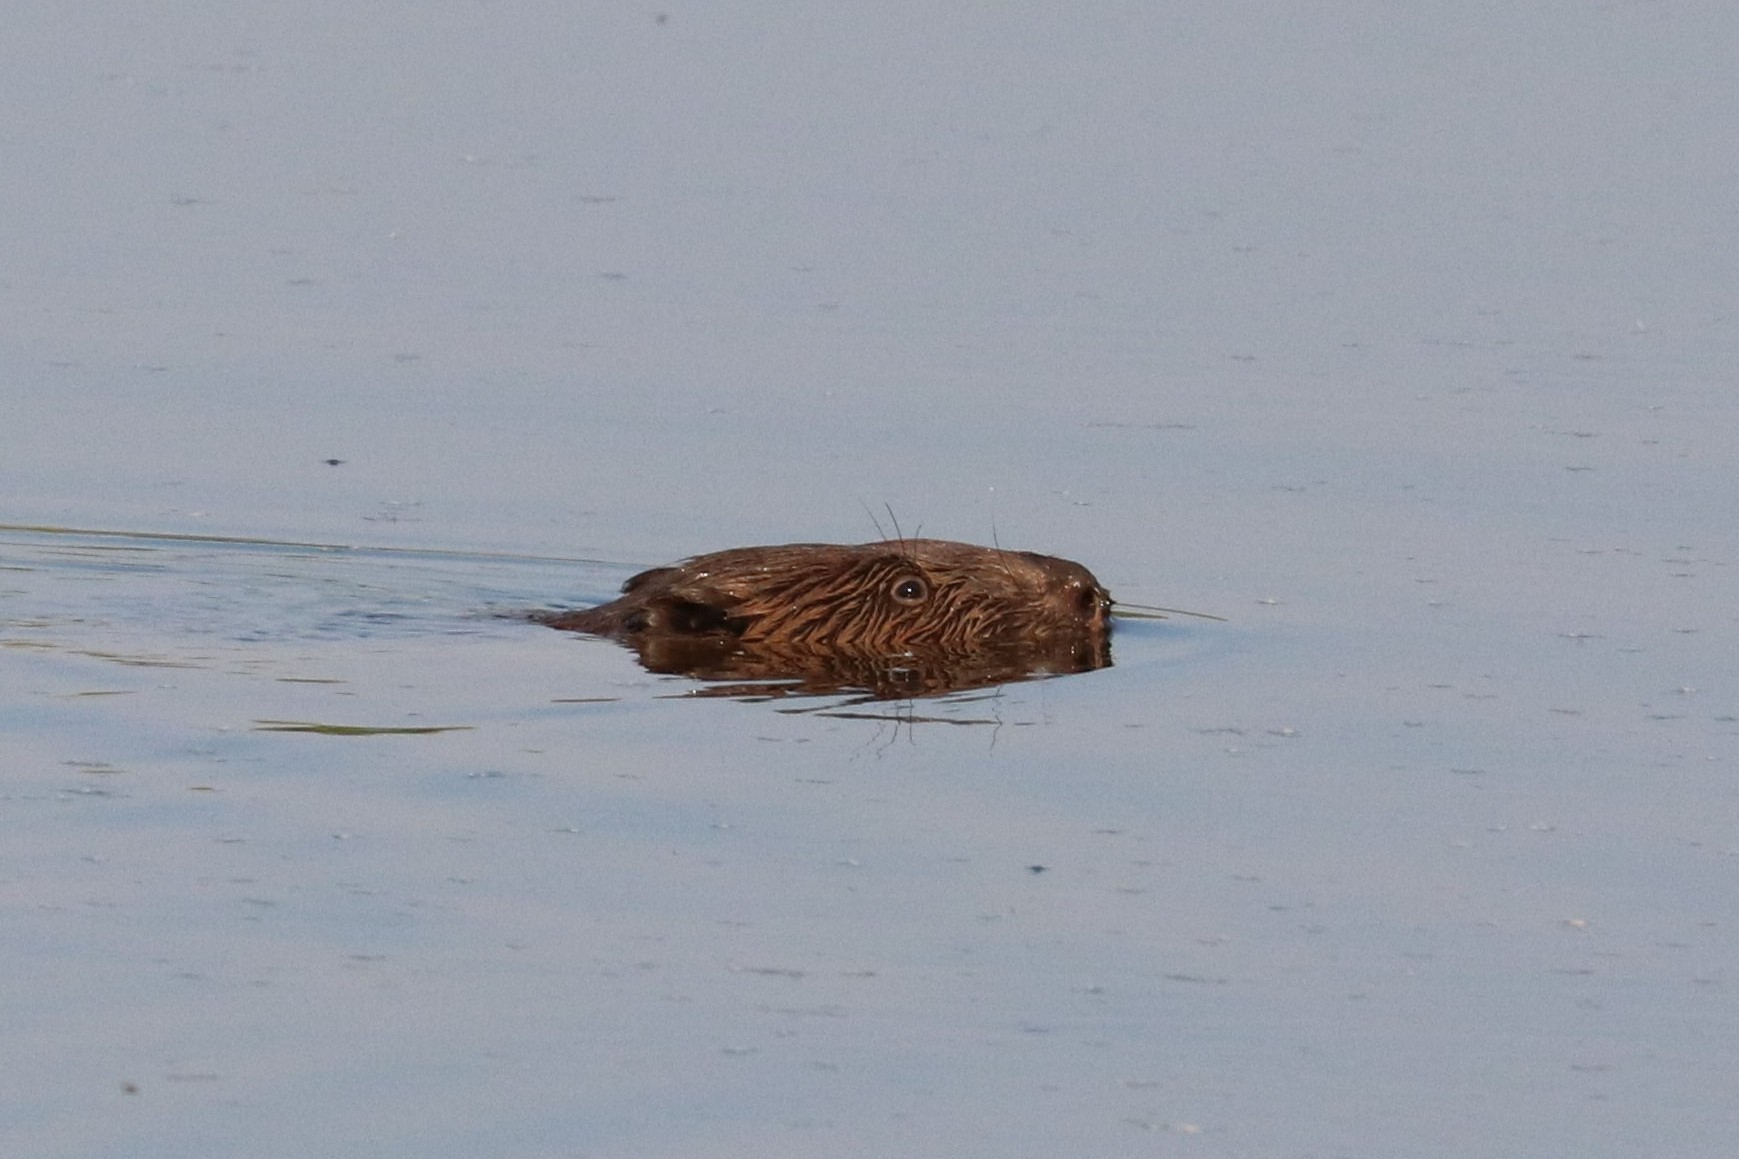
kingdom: Animalia
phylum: Chordata
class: Mammalia
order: Rodentia
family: Castoridae
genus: Castor
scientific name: Castor fiber
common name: Eurasian beaver
